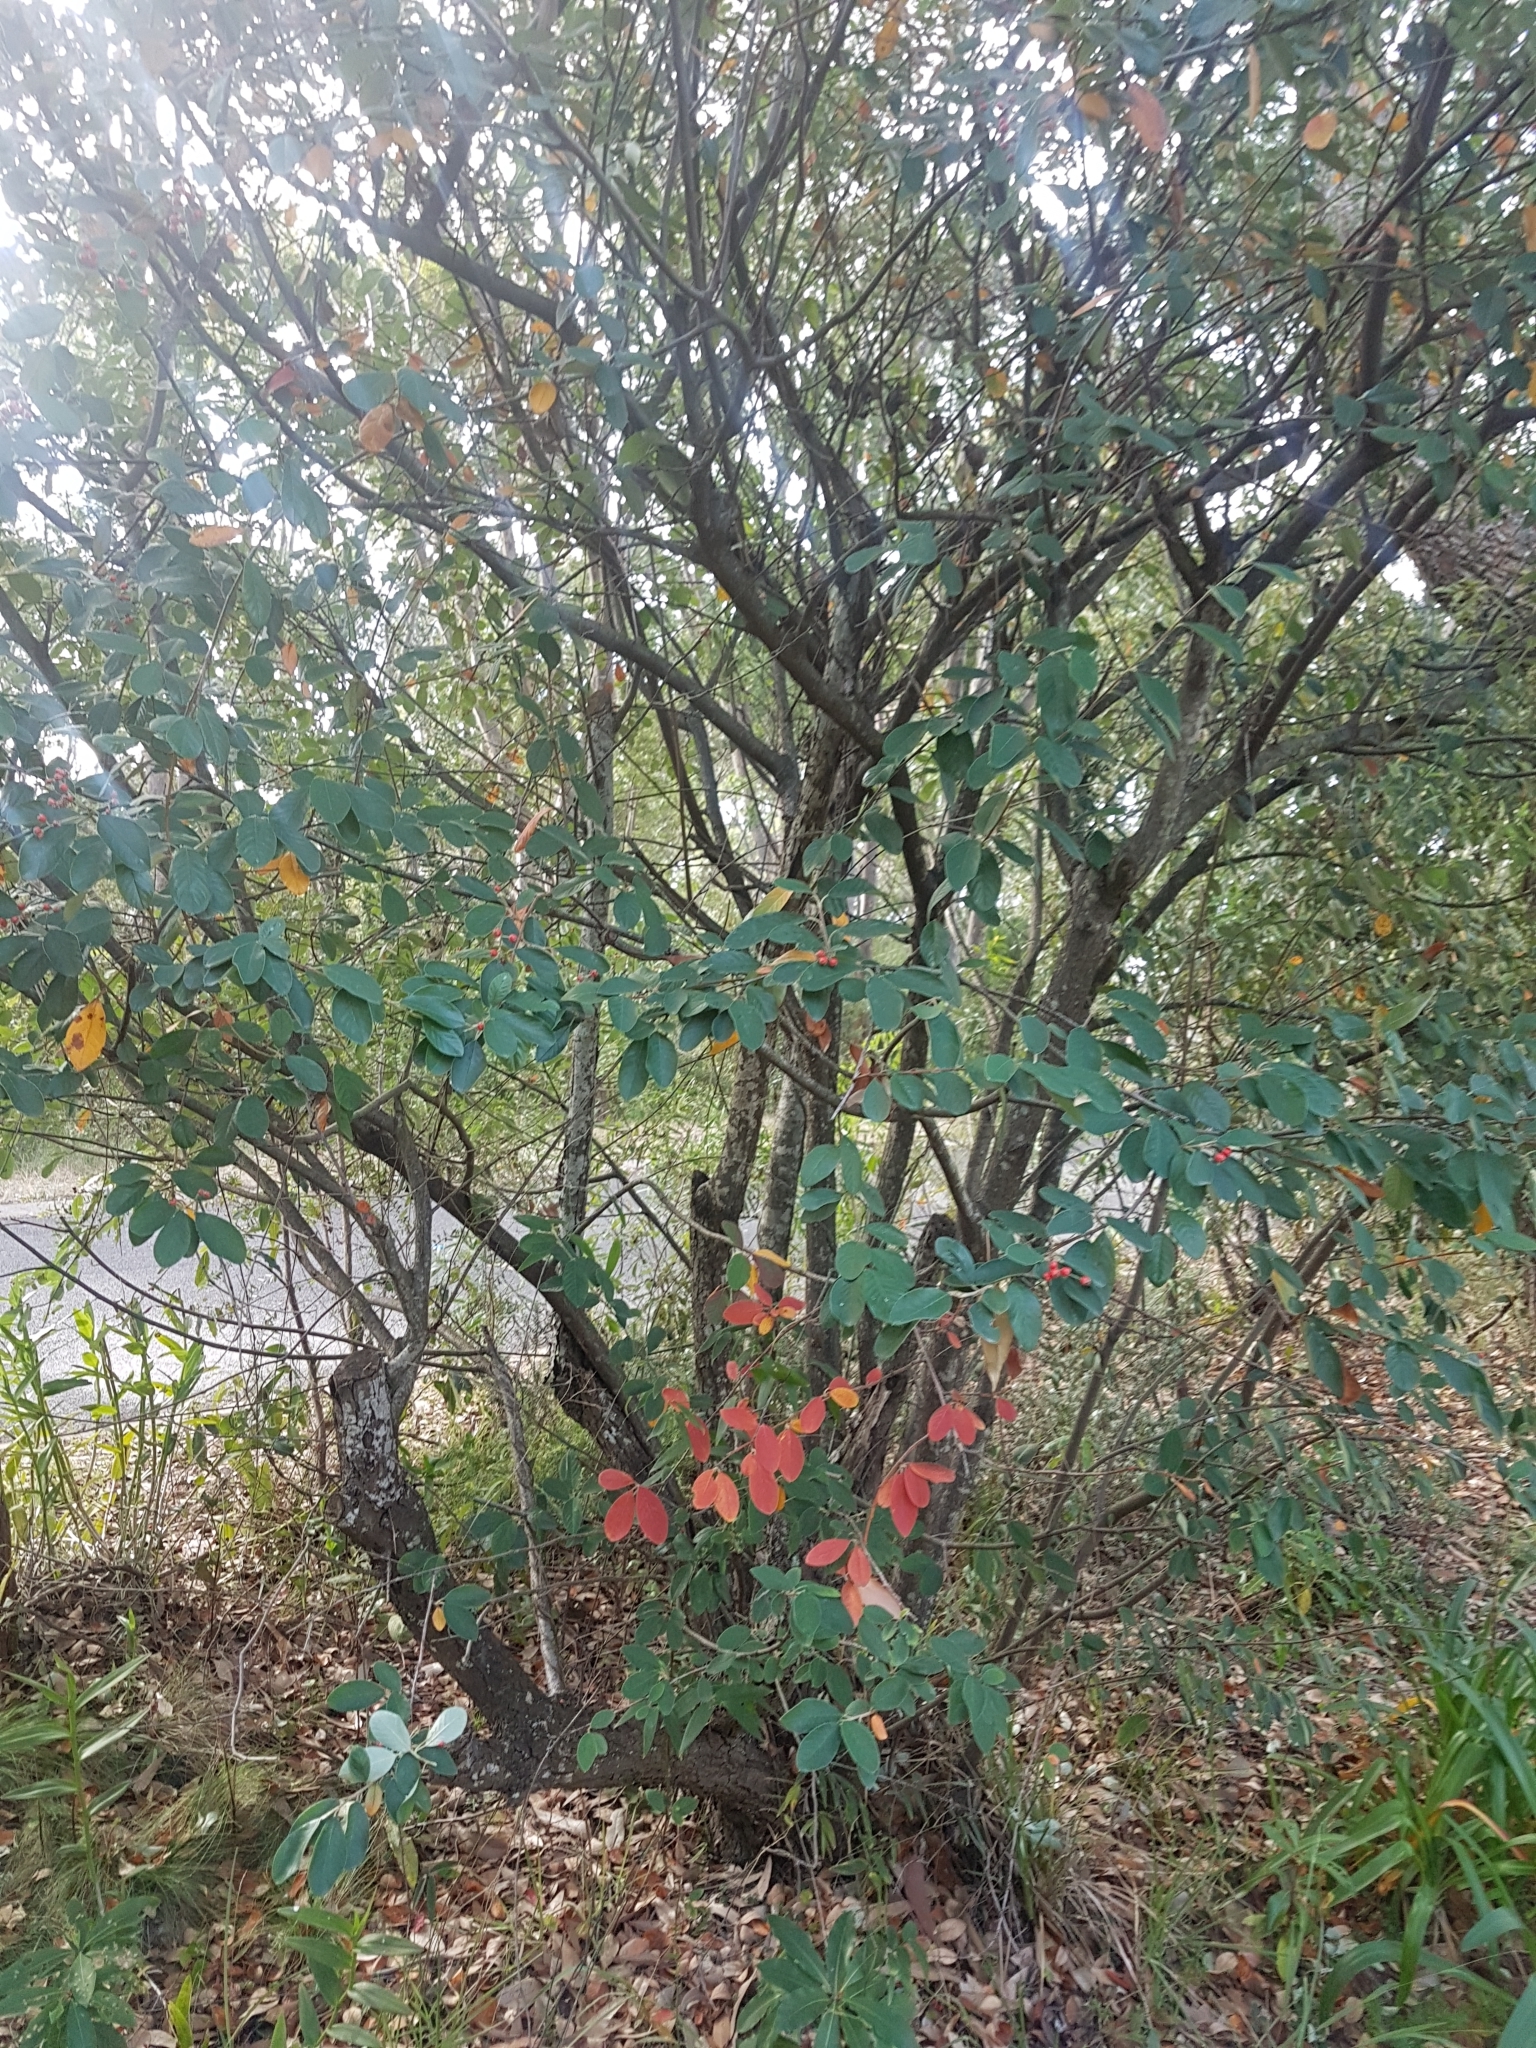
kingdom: Plantae
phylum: Tracheophyta
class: Magnoliopsida
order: Rosales
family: Rosaceae
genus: Cotoneaster
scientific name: Cotoneaster glaucophyllus
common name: Glaucous cotoneaster
